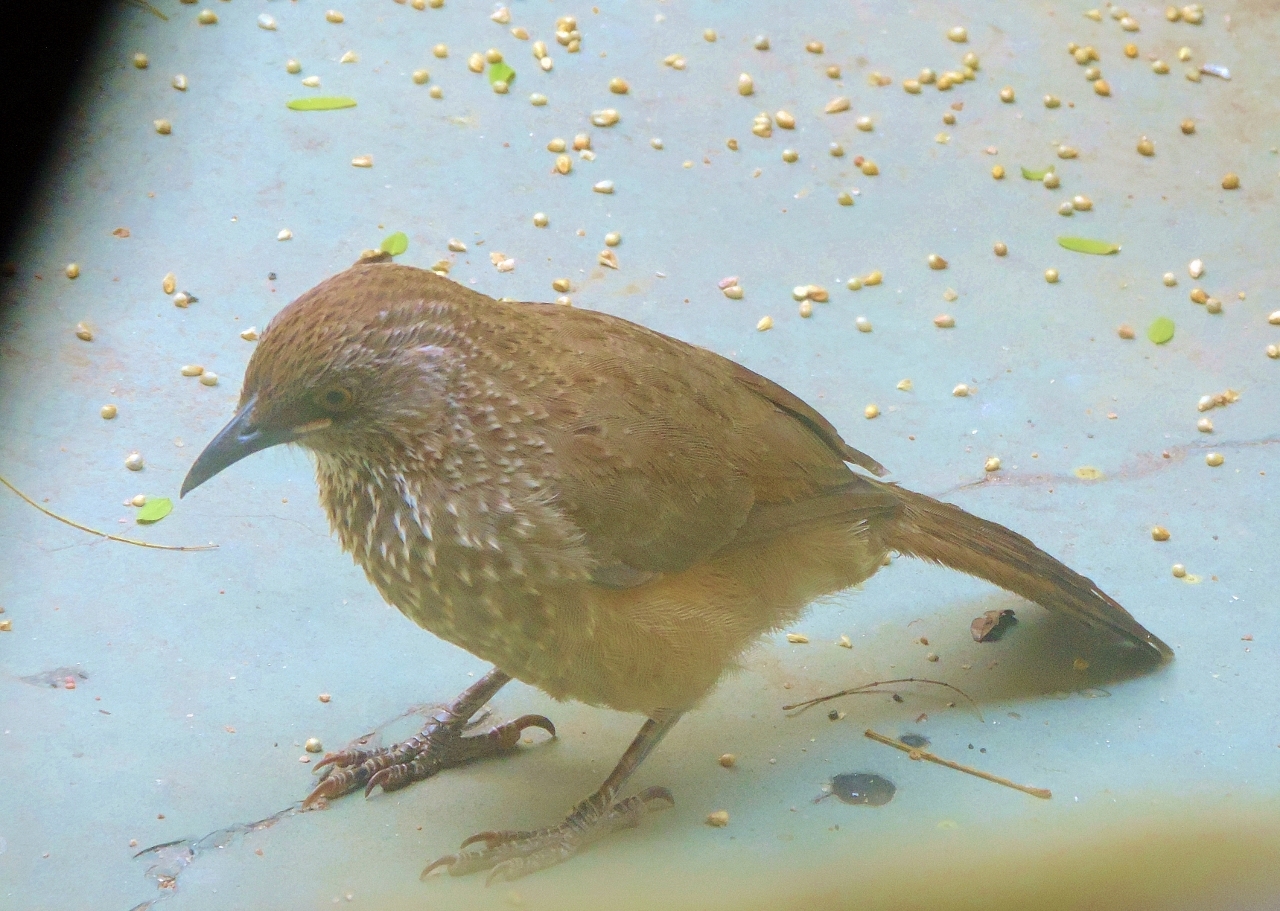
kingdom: Animalia
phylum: Chordata
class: Aves
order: Passeriformes
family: Leiothrichidae
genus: Turdoides
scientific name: Turdoides jardineii
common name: Arrow-marked babbler
